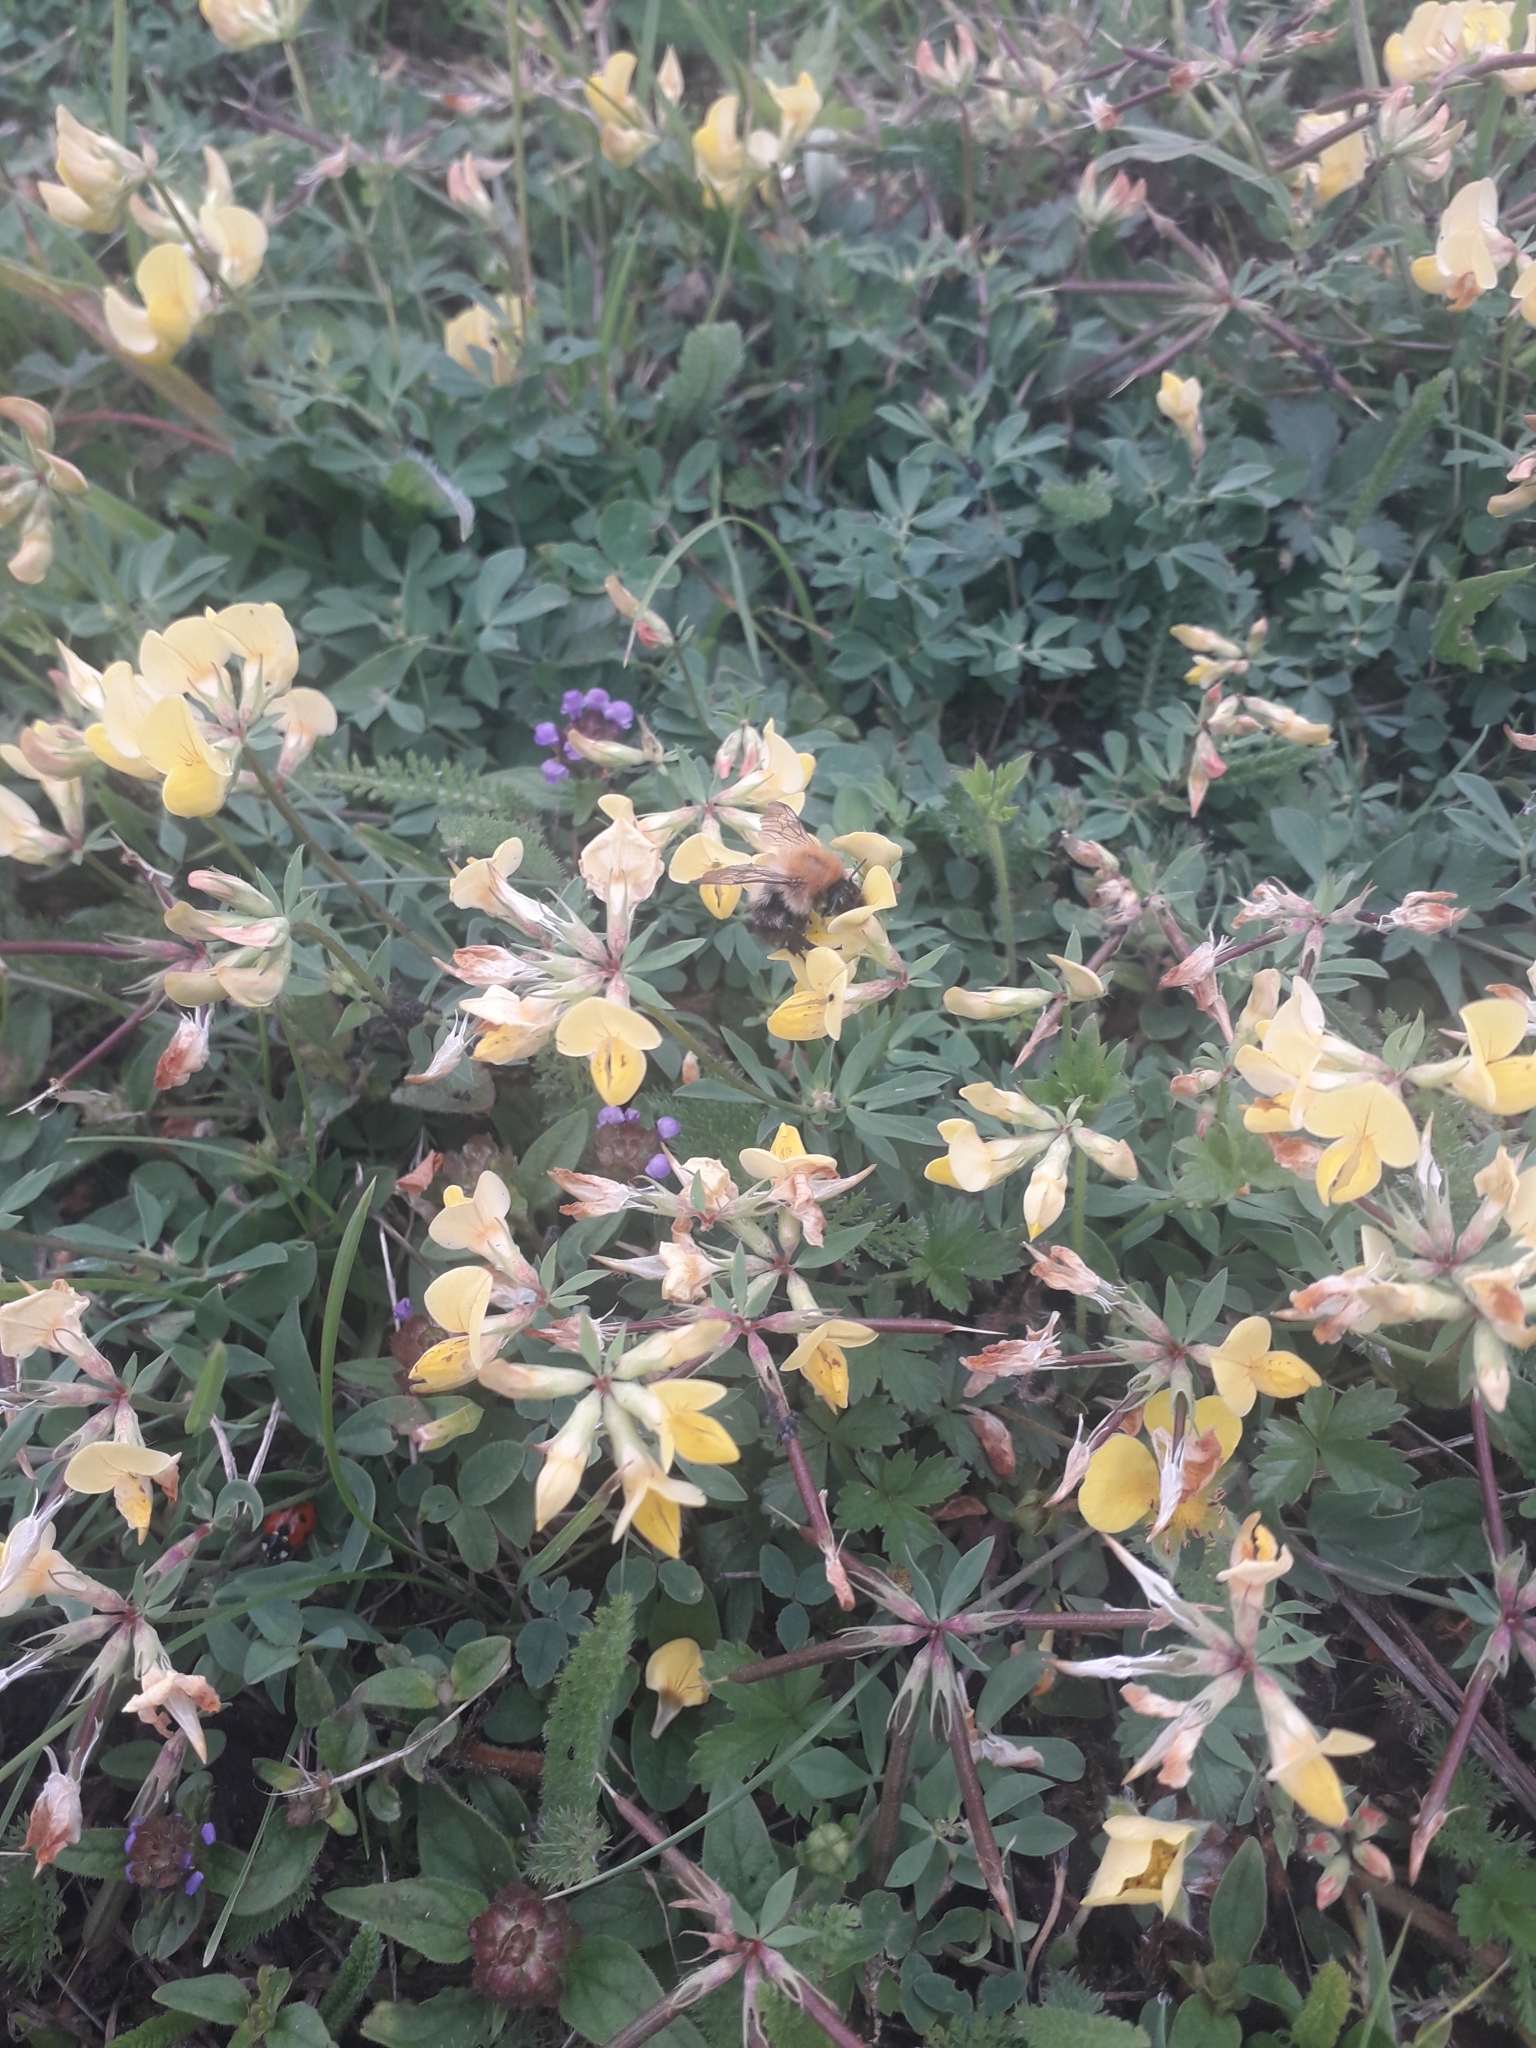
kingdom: Plantae
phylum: Tracheophyta
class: Magnoliopsida
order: Fabales
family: Fabaceae
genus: Lotus
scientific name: Lotus corniculatus
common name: Common bird's-foot-trefoil
